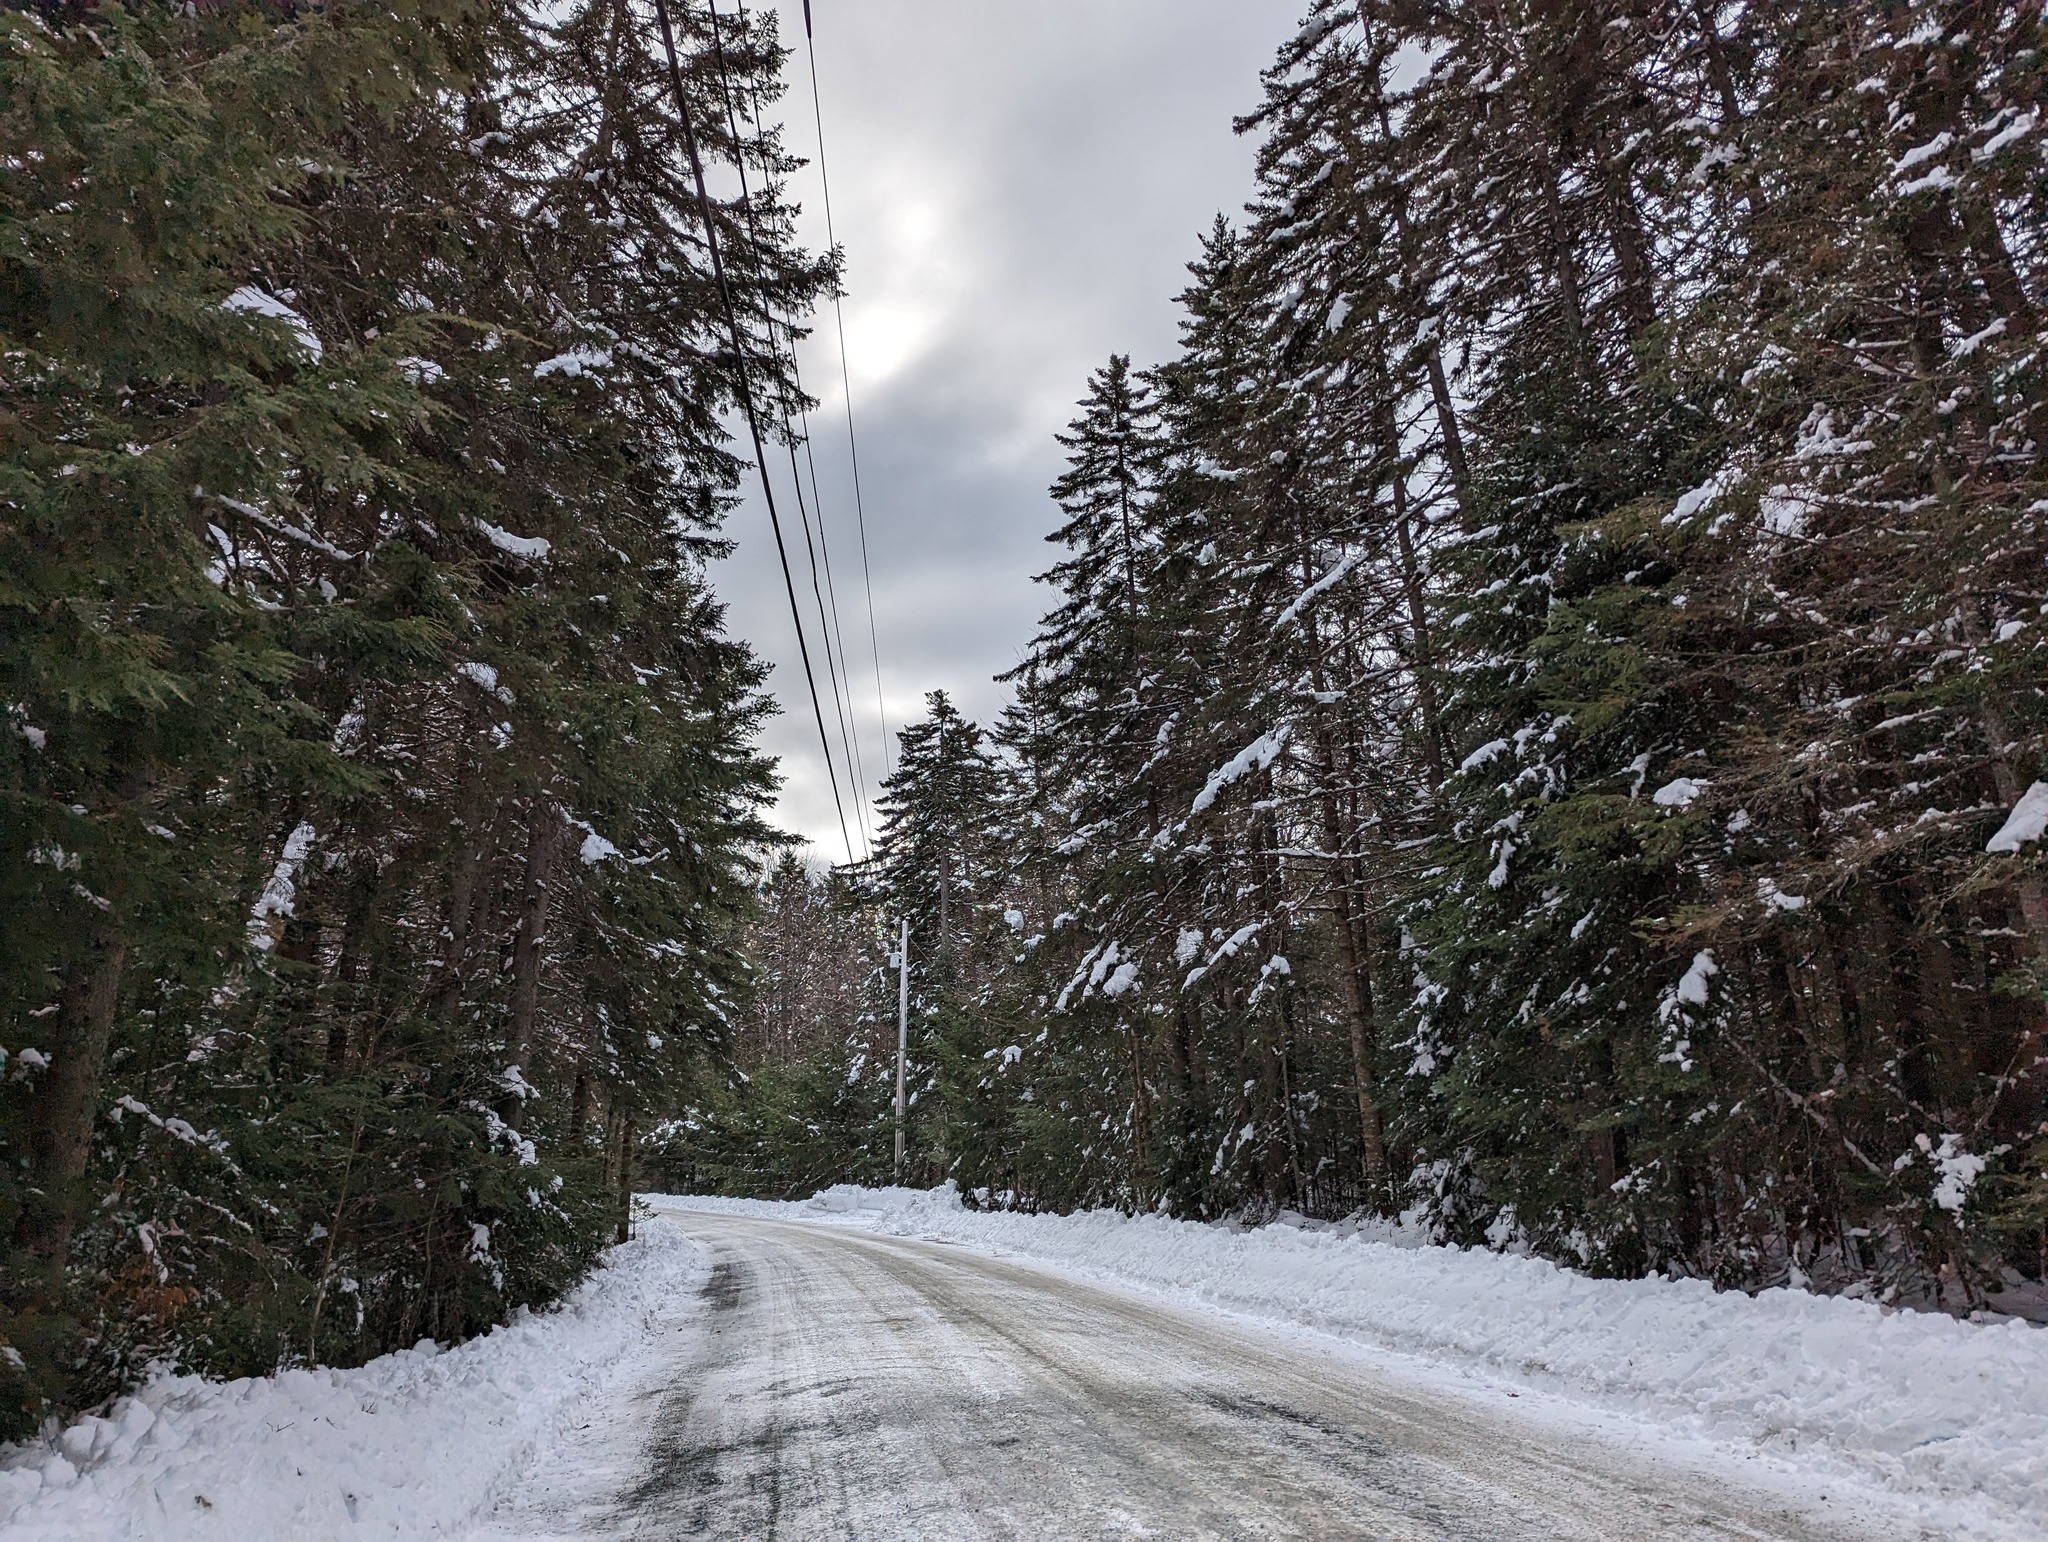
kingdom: Plantae
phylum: Tracheophyta
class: Pinopsida
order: Pinales
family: Pinaceae
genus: Tsuga
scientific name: Tsuga canadensis
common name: Eastern hemlock
